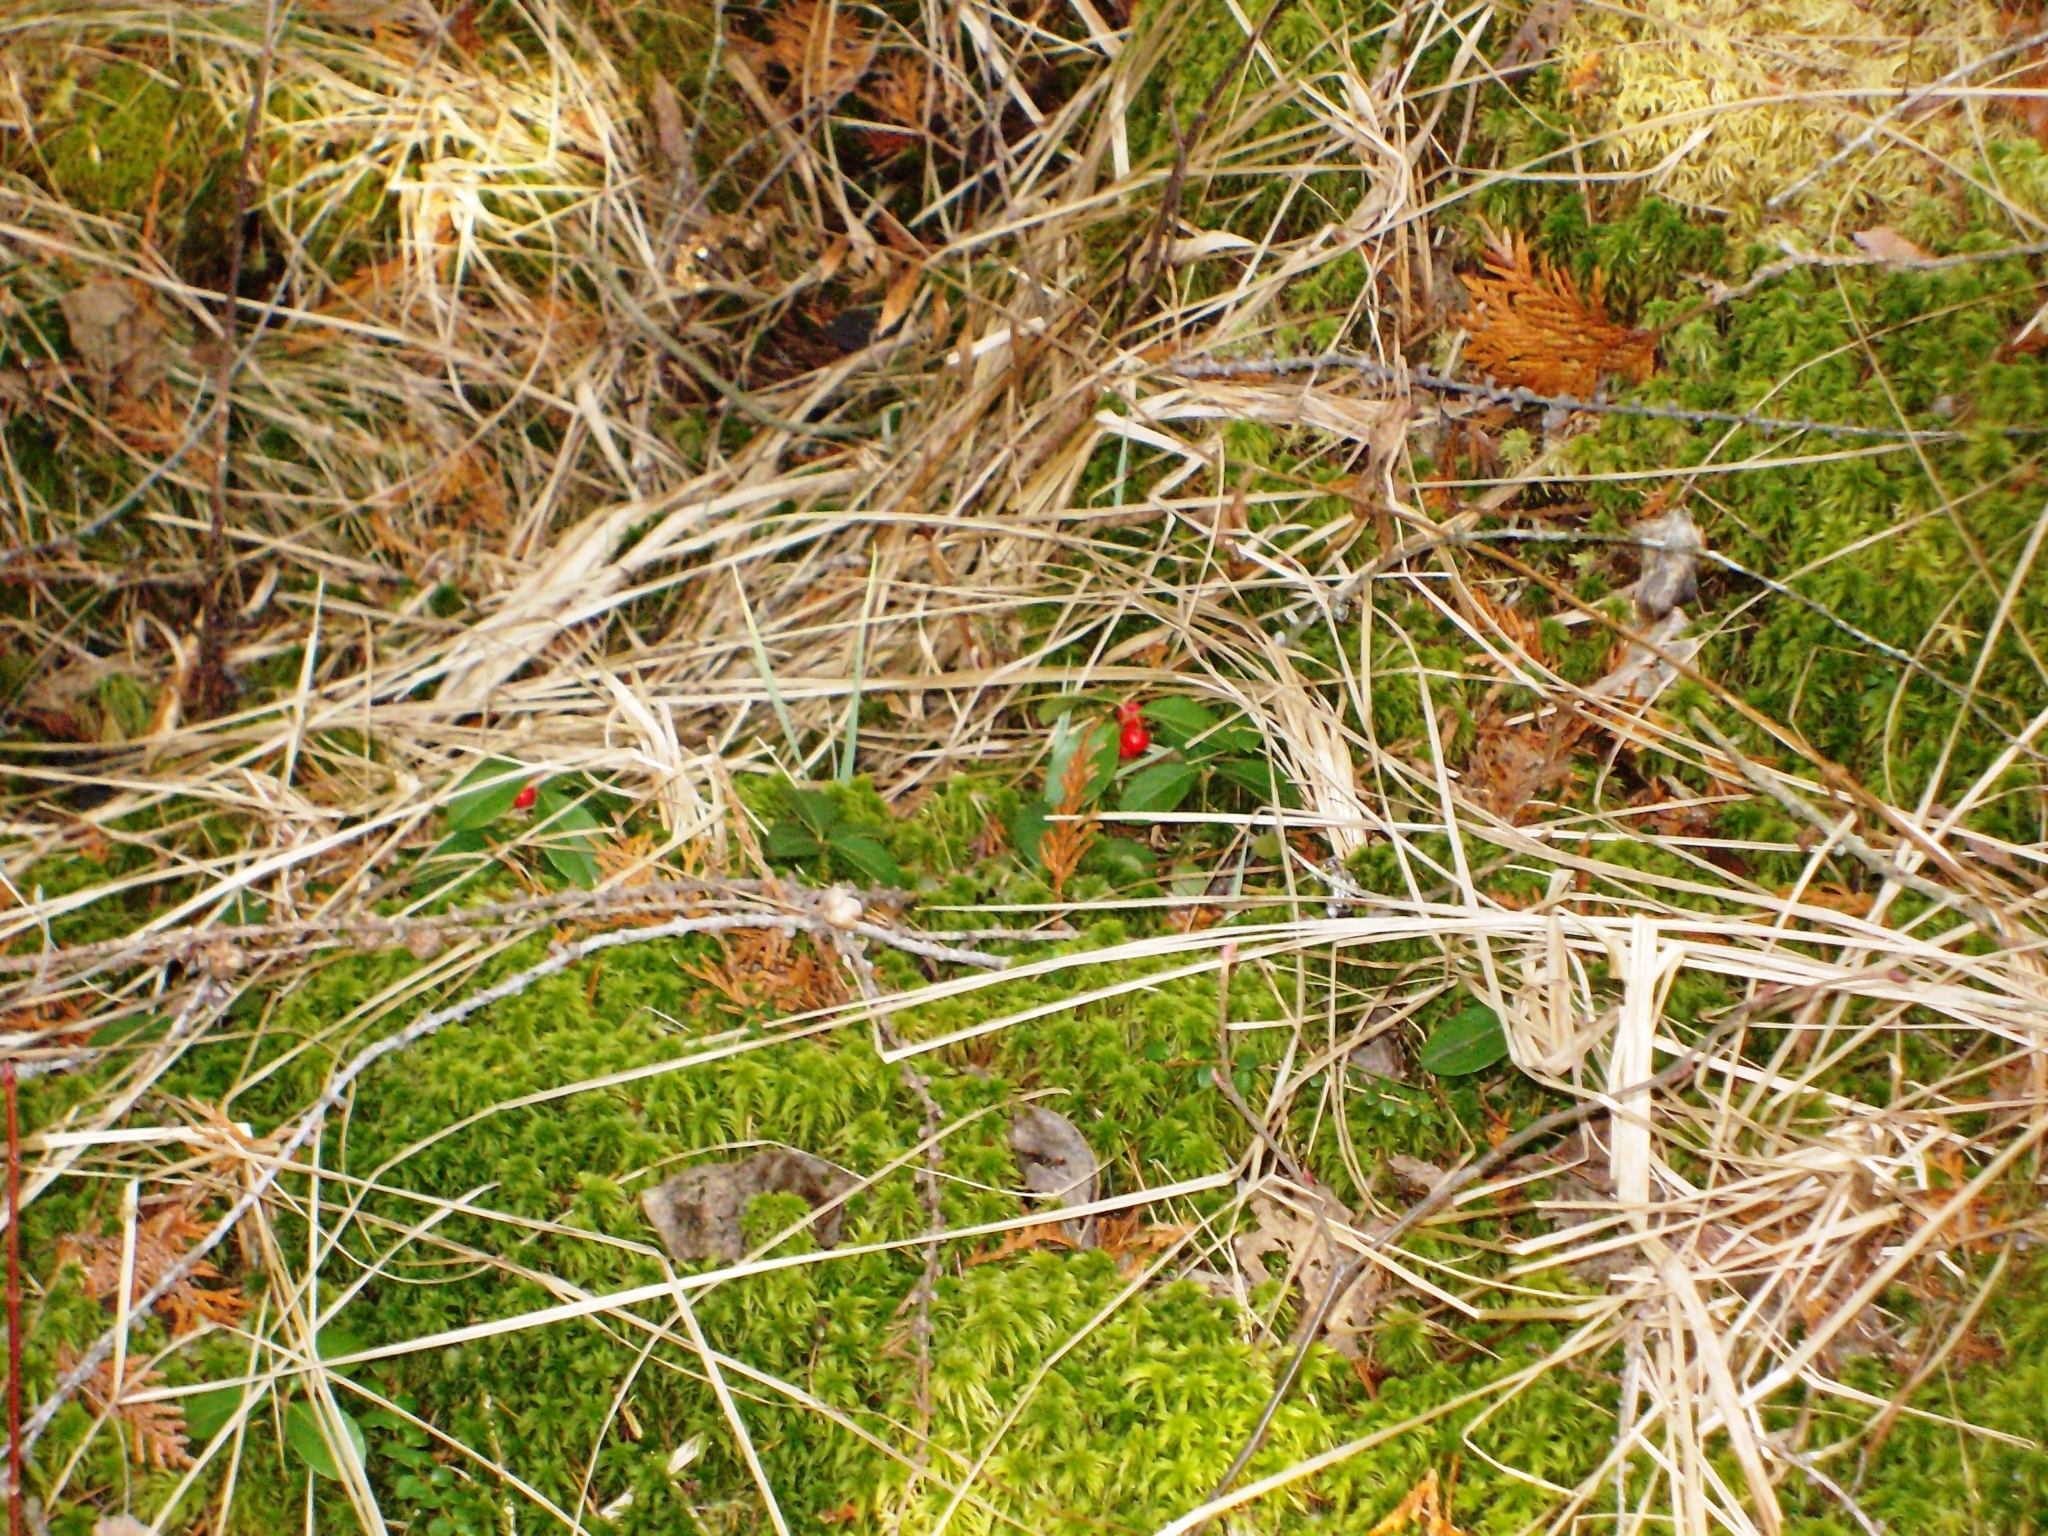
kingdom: Plantae
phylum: Tracheophyta
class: Magnoliopsida
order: Ericales
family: Ericaceae
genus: Gaultheria
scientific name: Gaultheria procumbens
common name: Checkerberry
